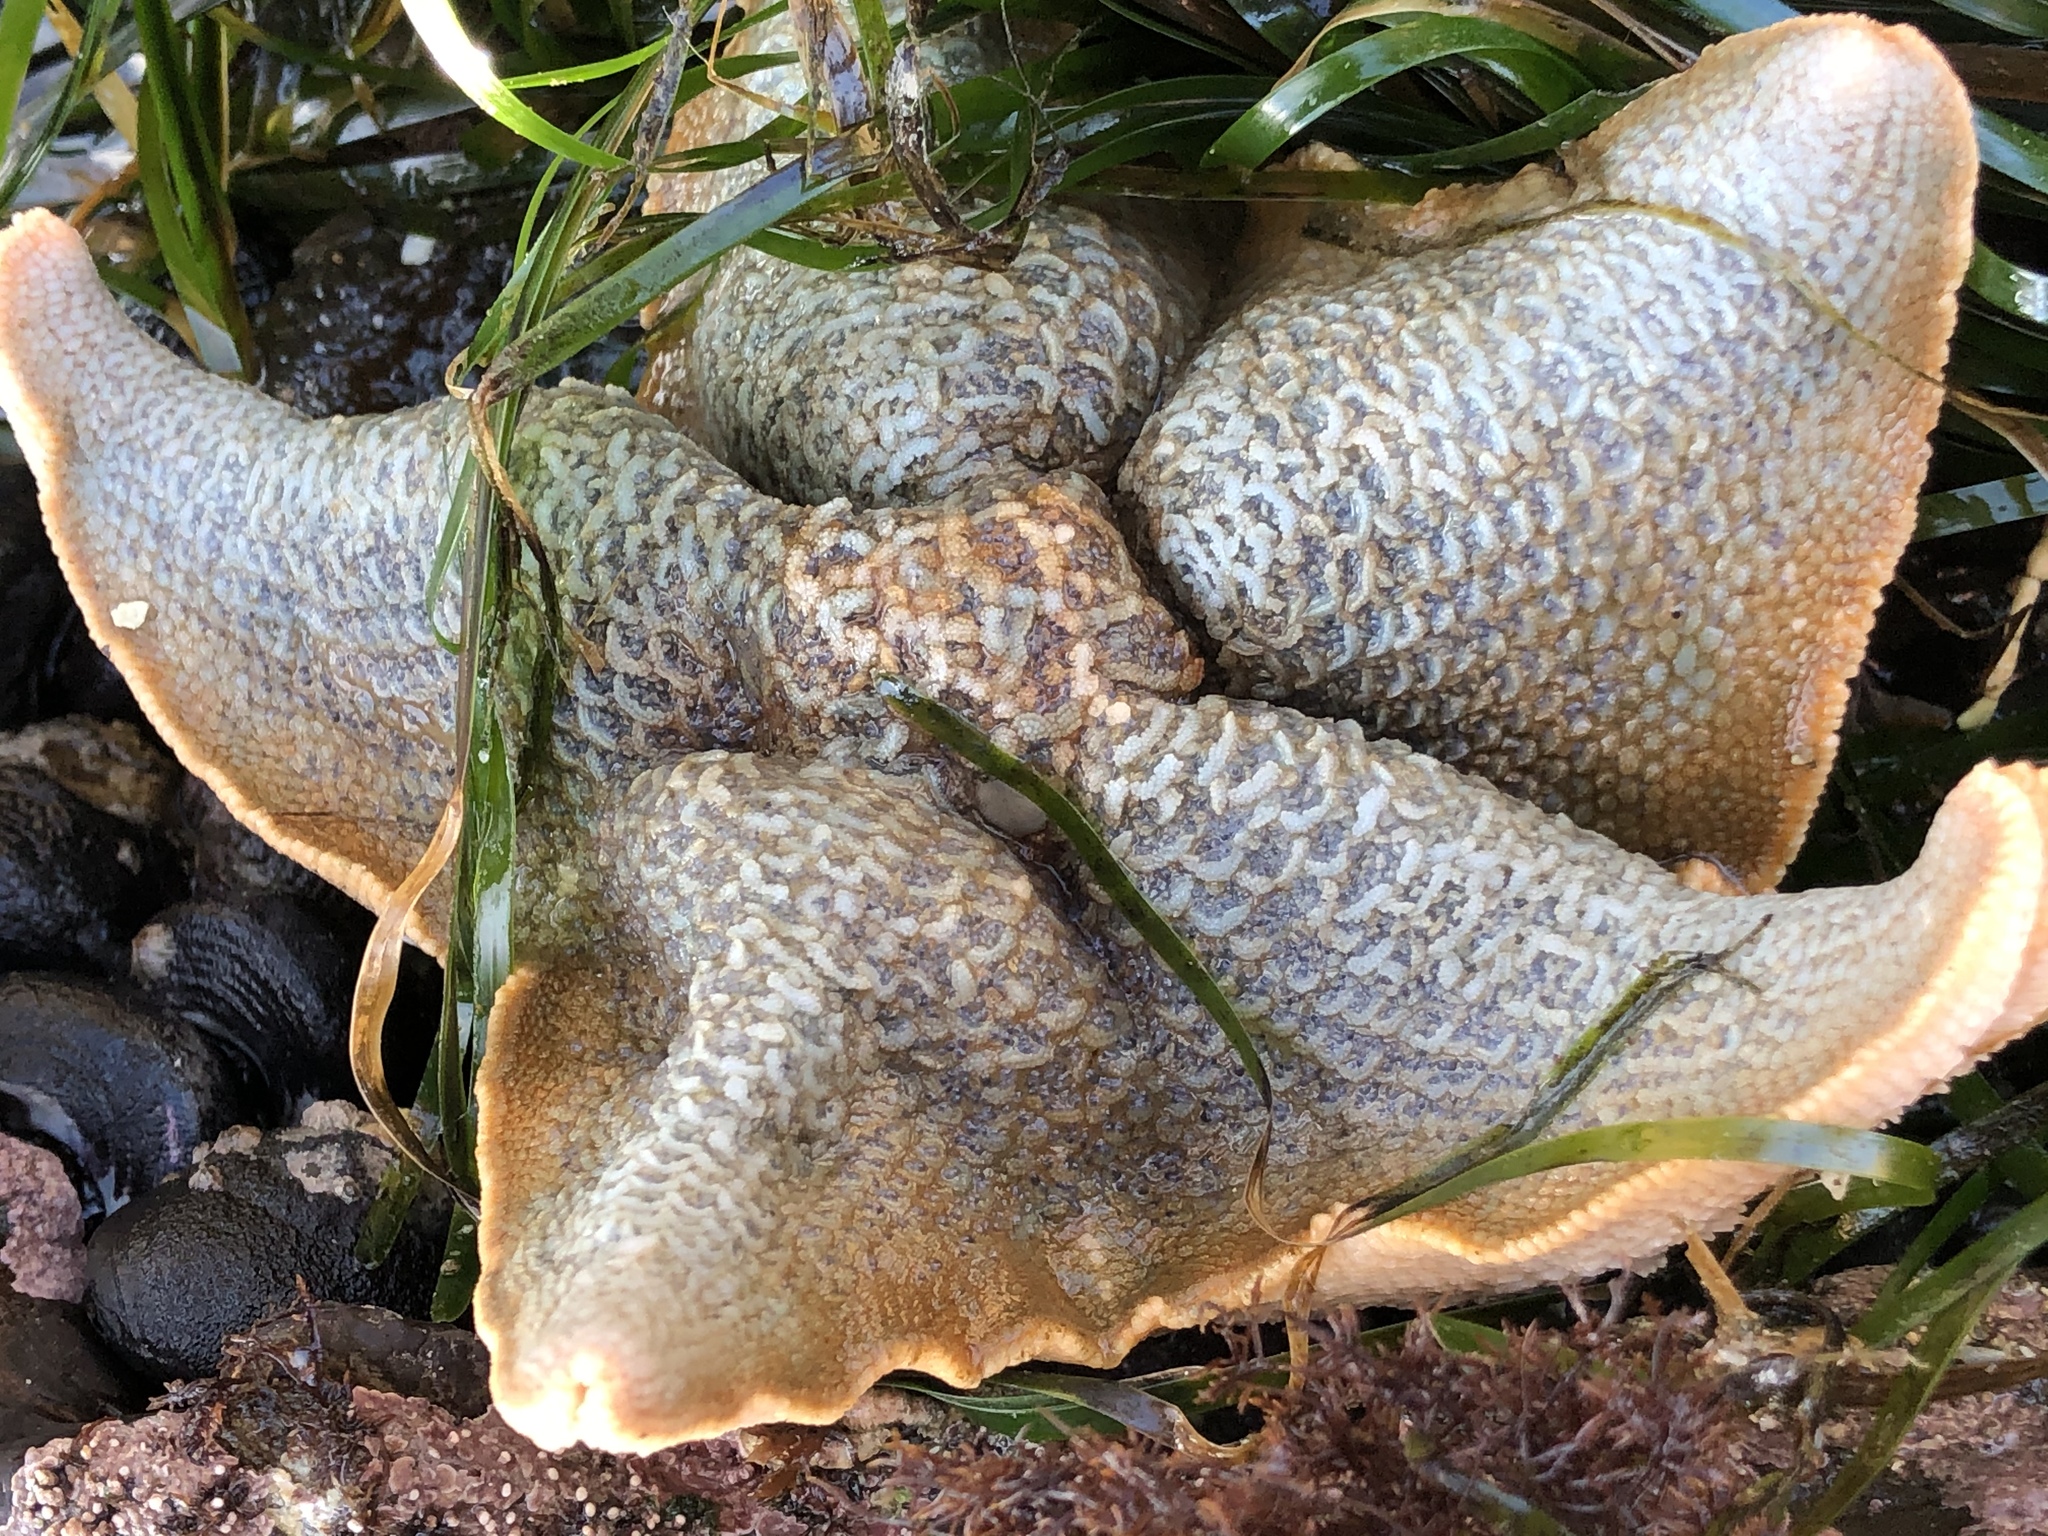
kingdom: Animalia
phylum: Echinodermata
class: Asteroidea
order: Valvatida
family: Asterinidae
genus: Patiria
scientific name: Patiria miniata
